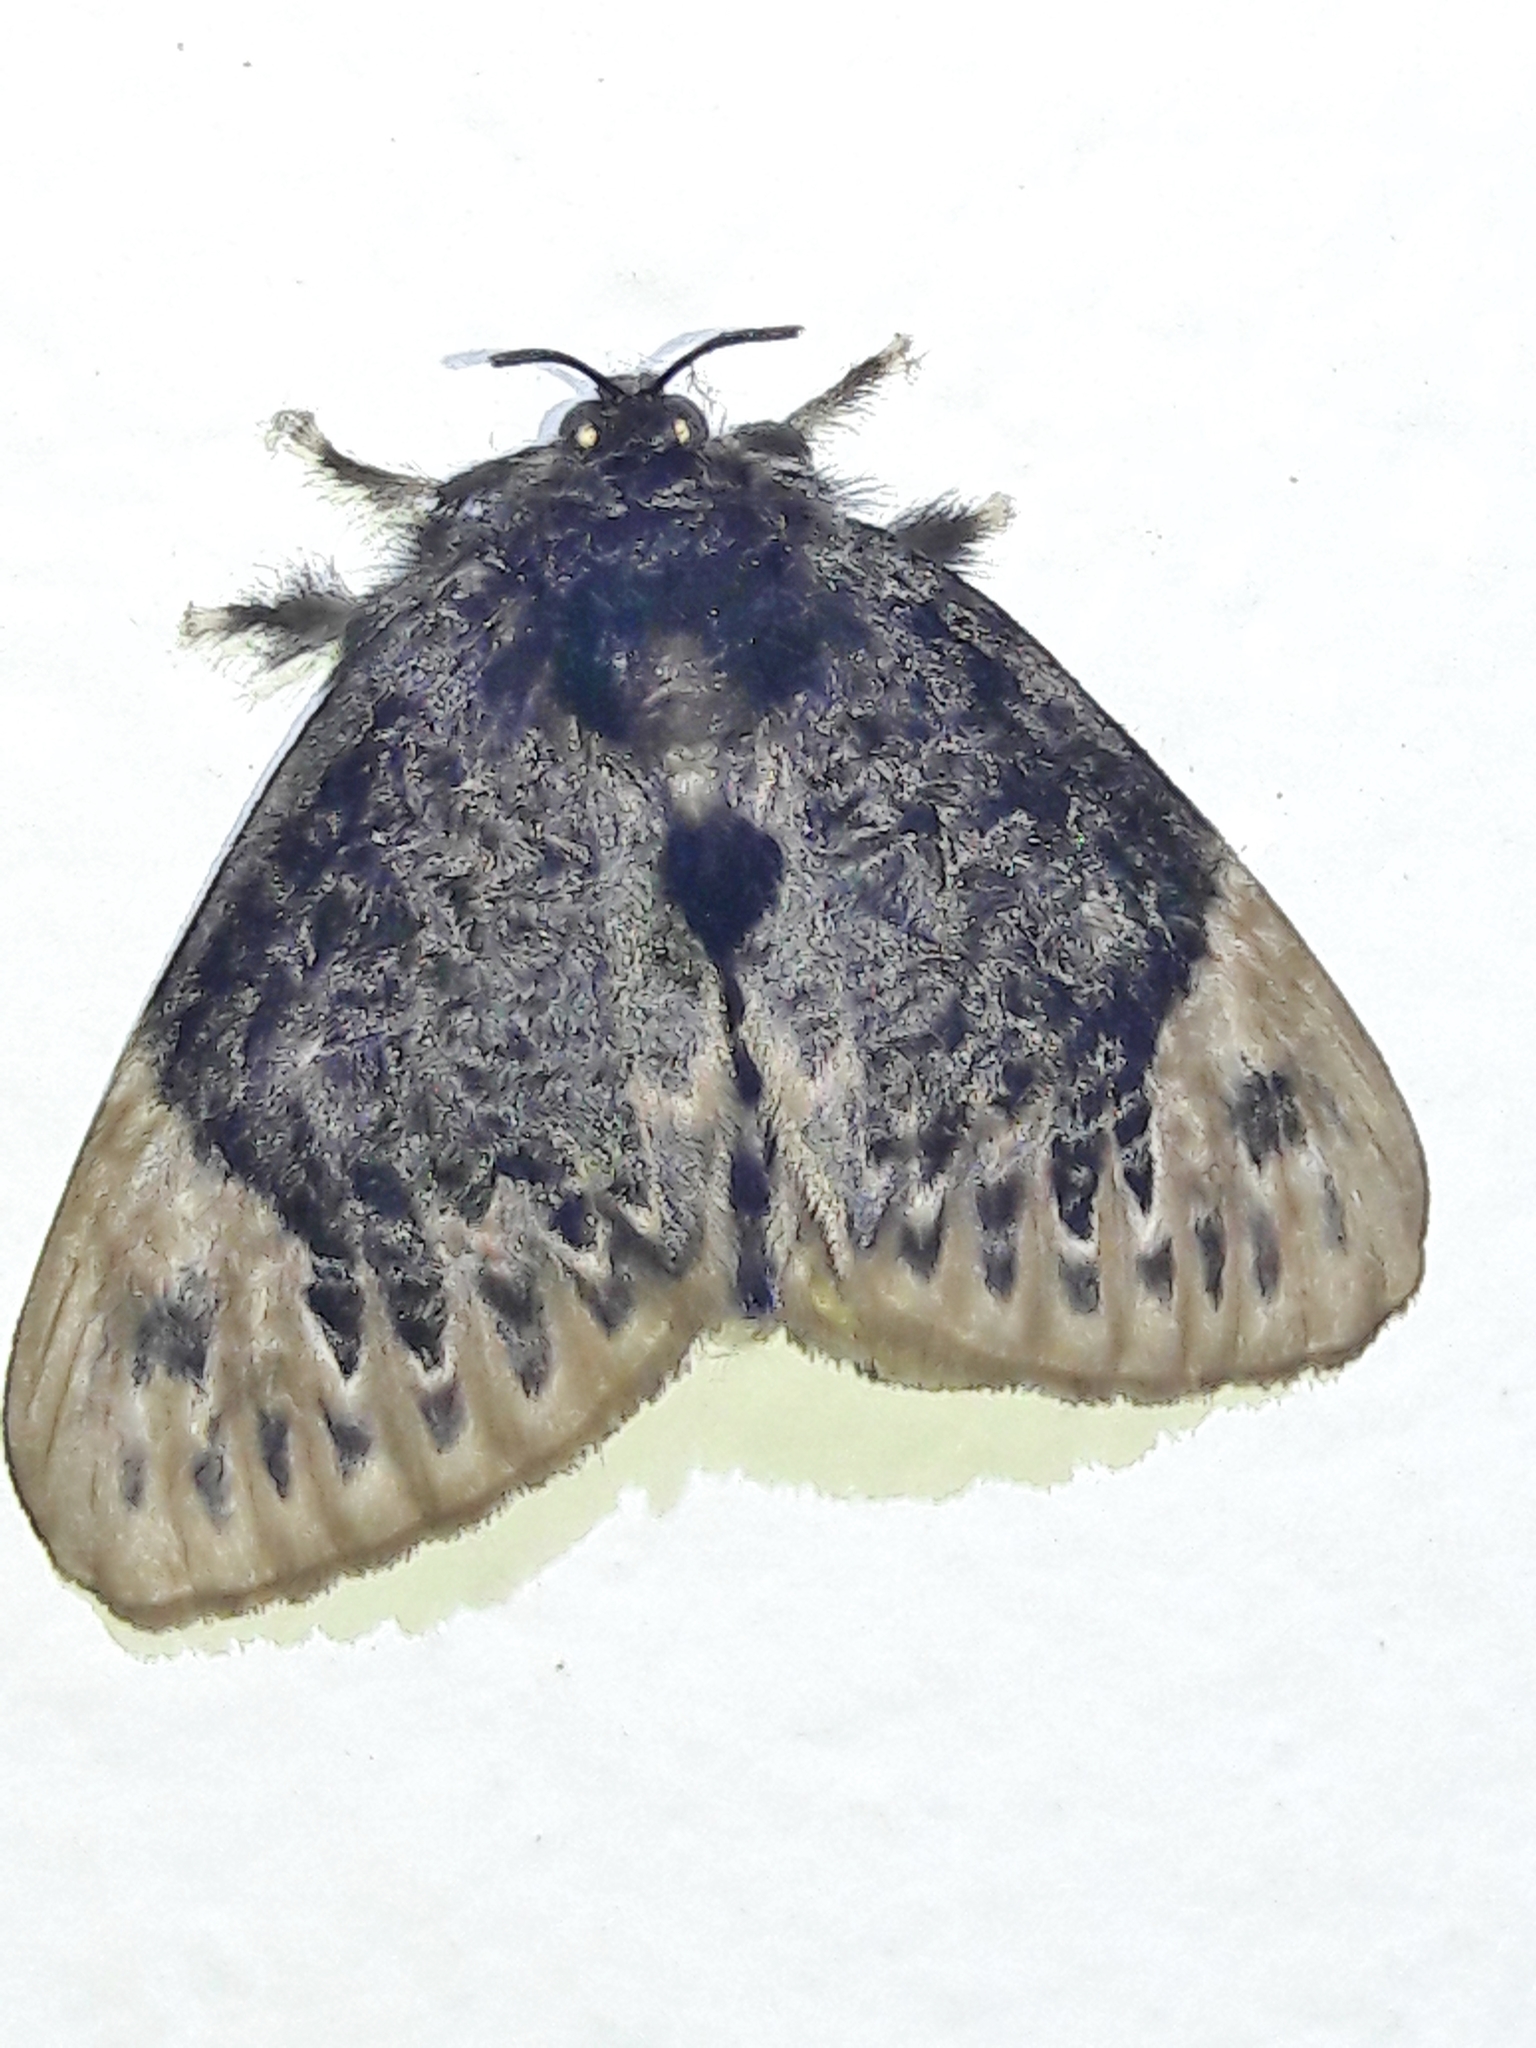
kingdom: Animalia
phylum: Arthropoda
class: Insecta
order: Lepidoptera
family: Megalopygidae
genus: Podalia
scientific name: Podalia thanatos
